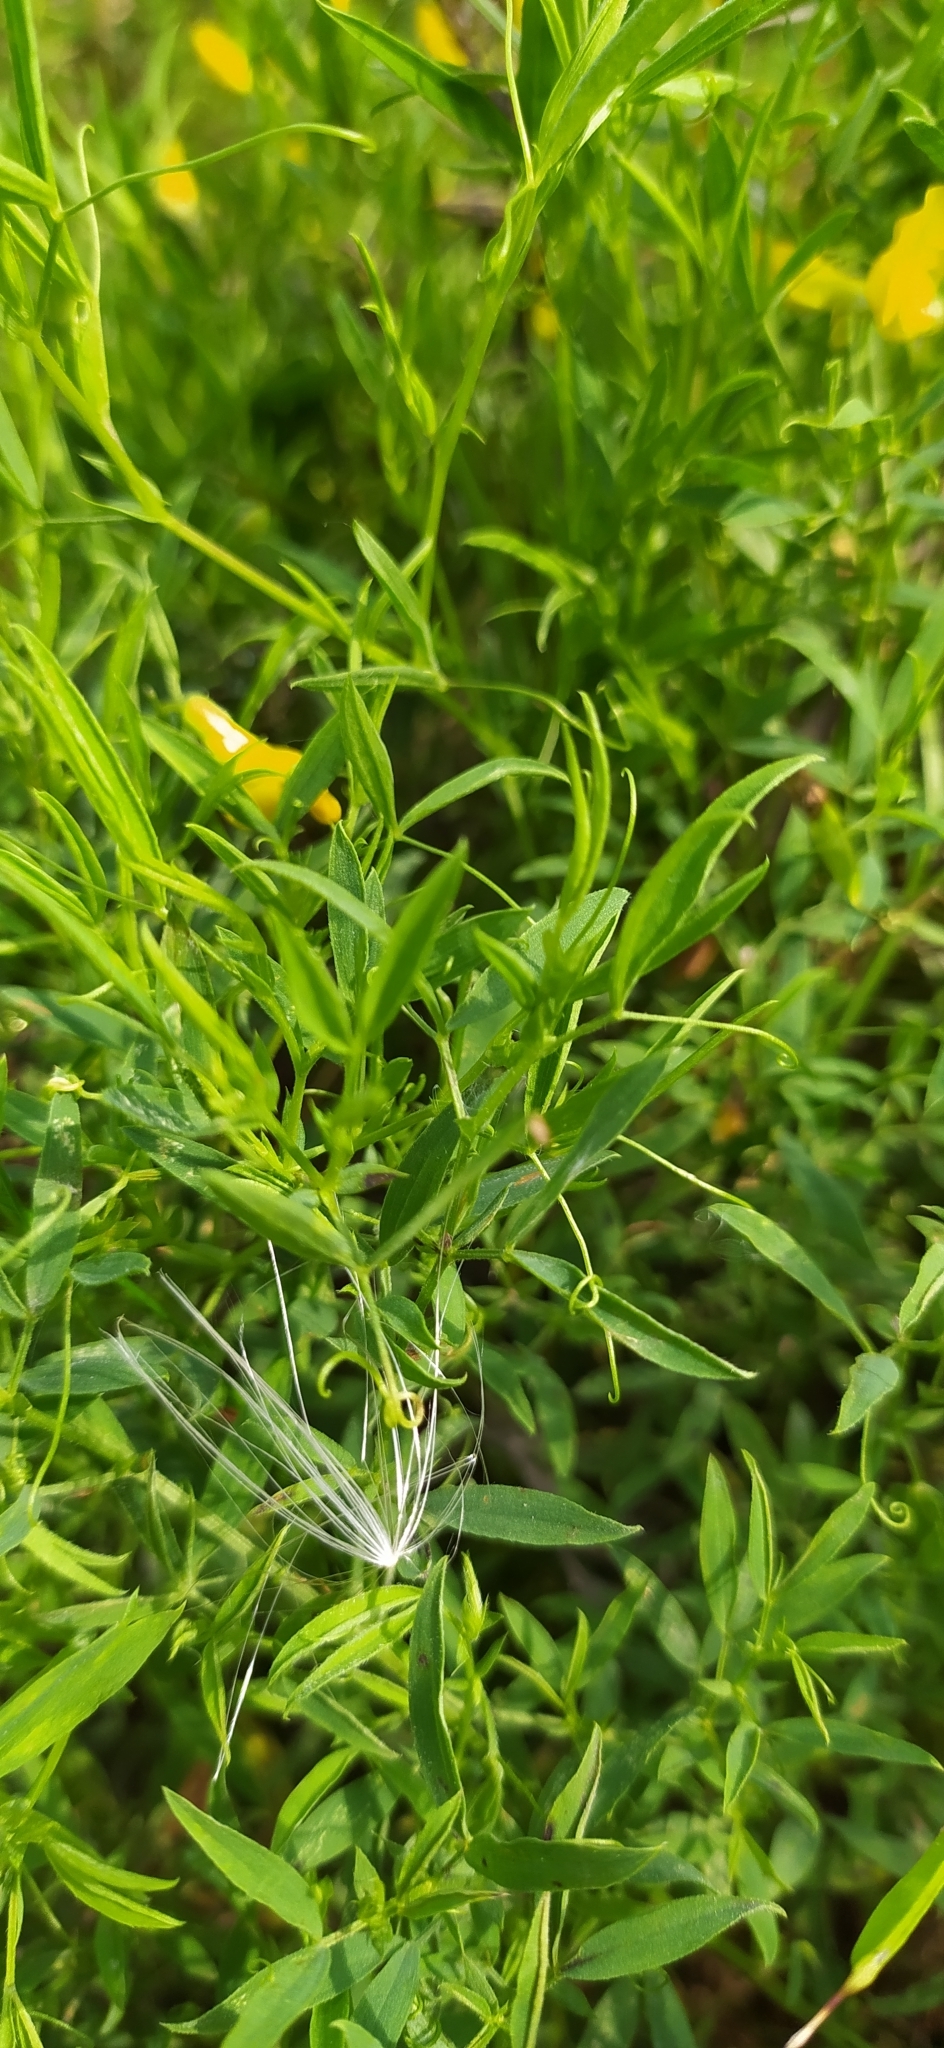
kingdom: Plantae
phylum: Tracheophyta
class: Magnoliopsida
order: Fabales
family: Fabaceae
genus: Lathyrus
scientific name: Lathyrus pratensis
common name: Meadow vetchling
